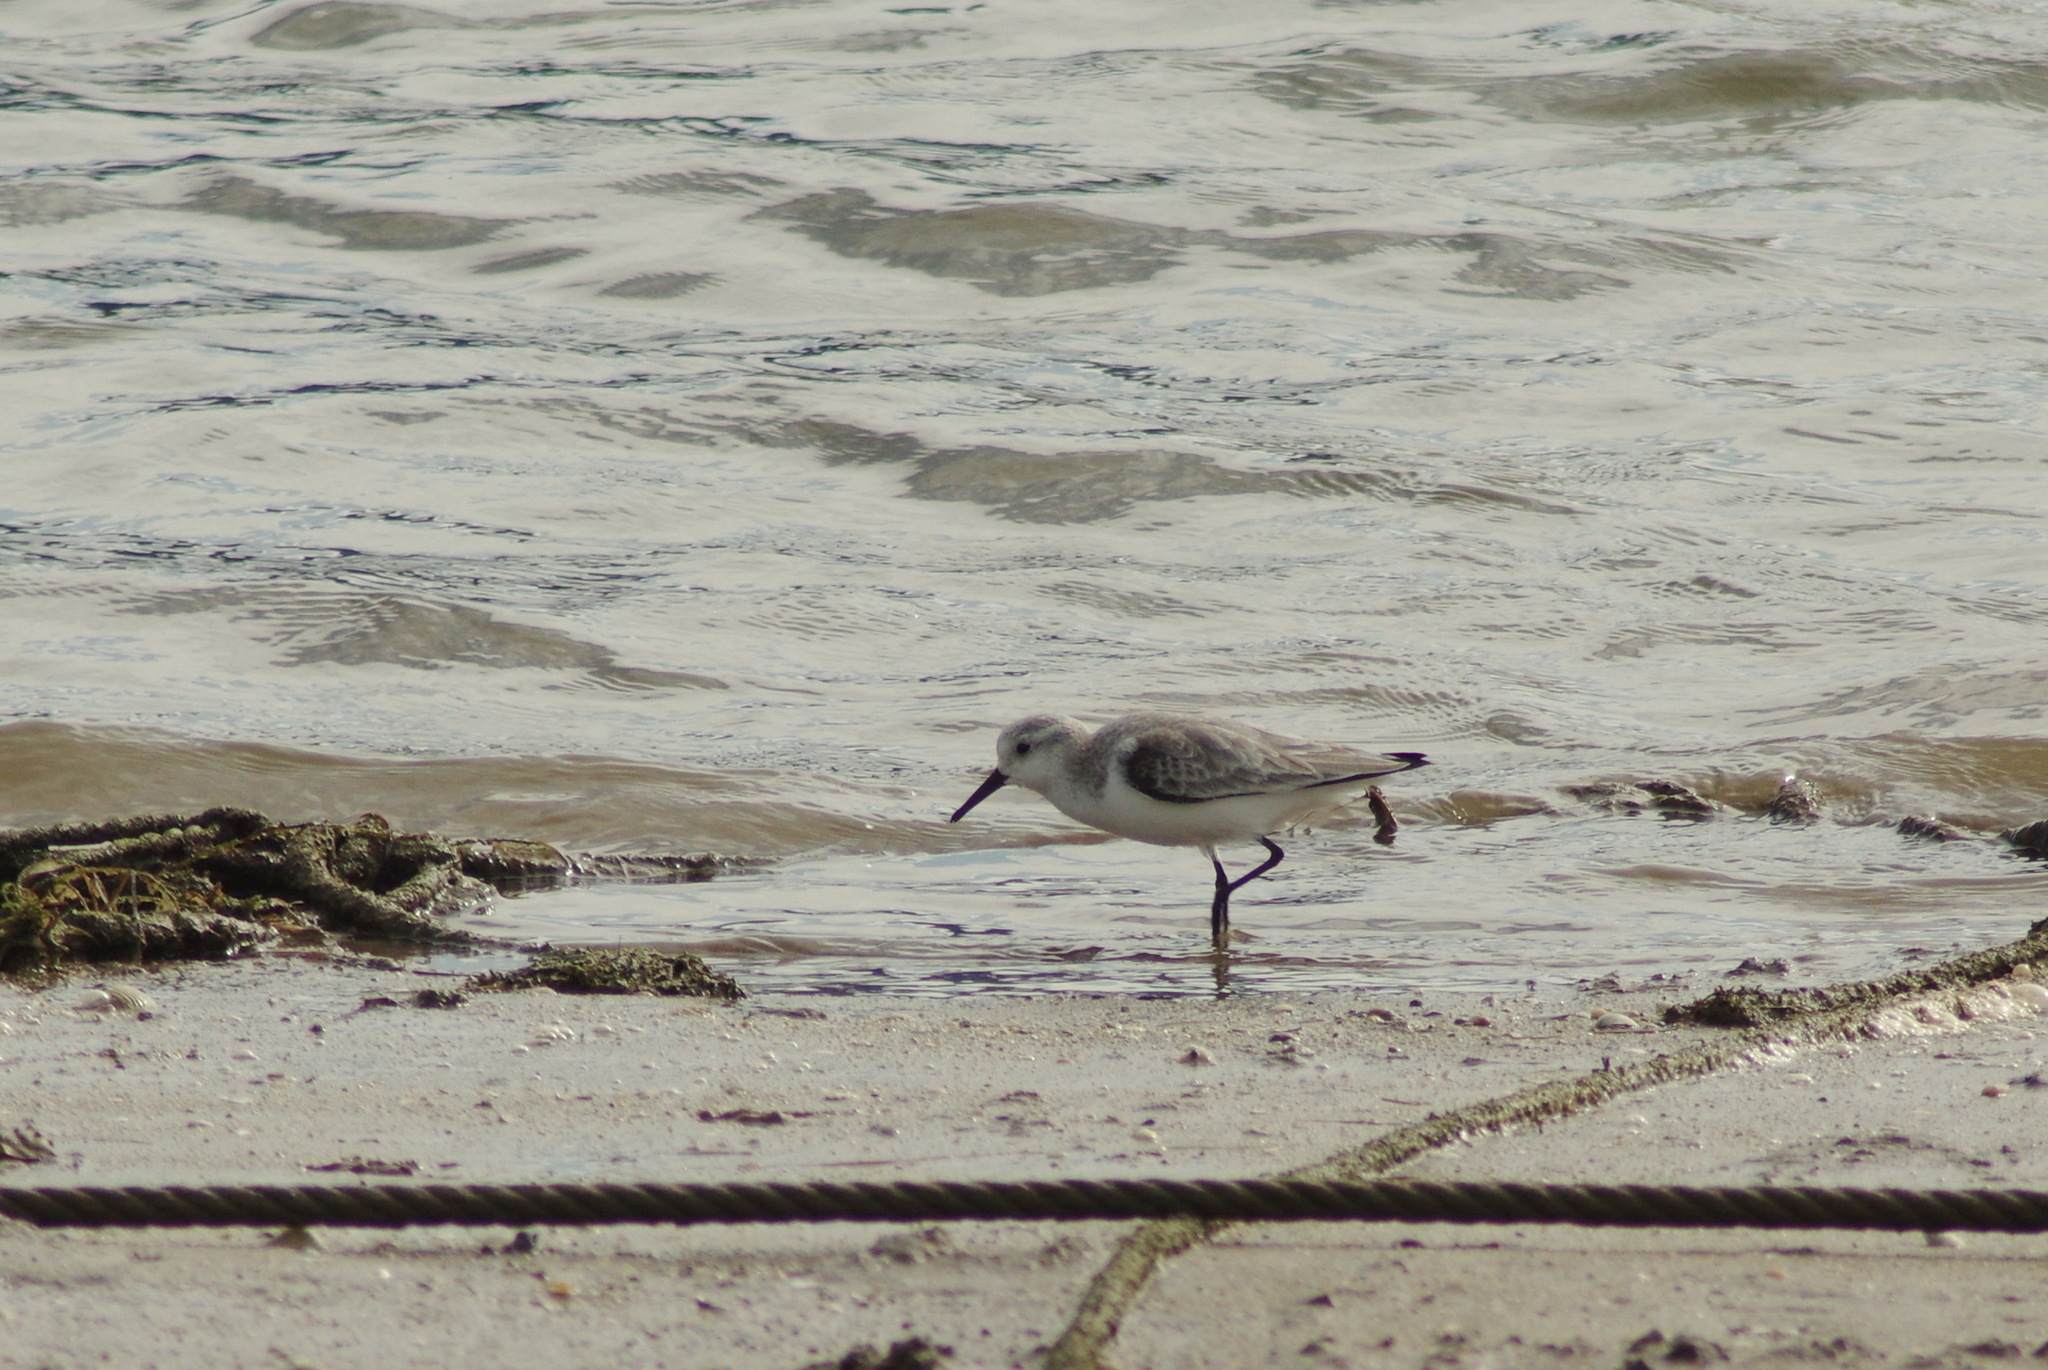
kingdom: Animalia
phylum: Chordata
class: Aves
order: Charadriiformes
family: Scolopacidae
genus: Calidris
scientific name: Calidris alba
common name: Sanderling
